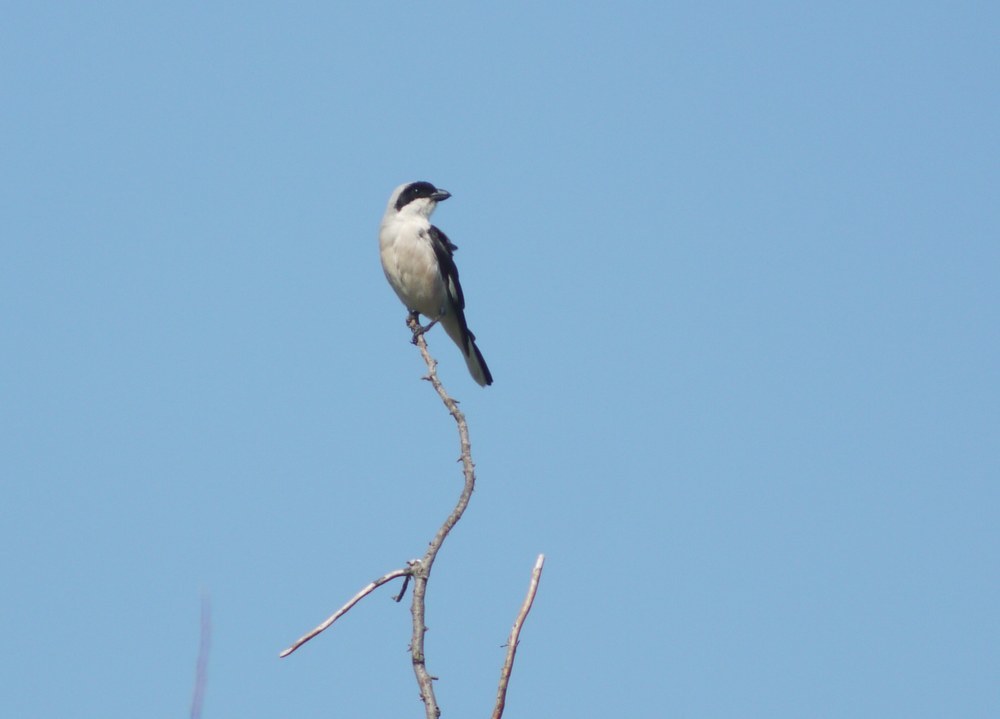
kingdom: Animalia
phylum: Chordata
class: Aves
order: Passeriformes
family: Laniidae
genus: Lanius
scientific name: Lanius minor
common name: Lesser grey shrike
